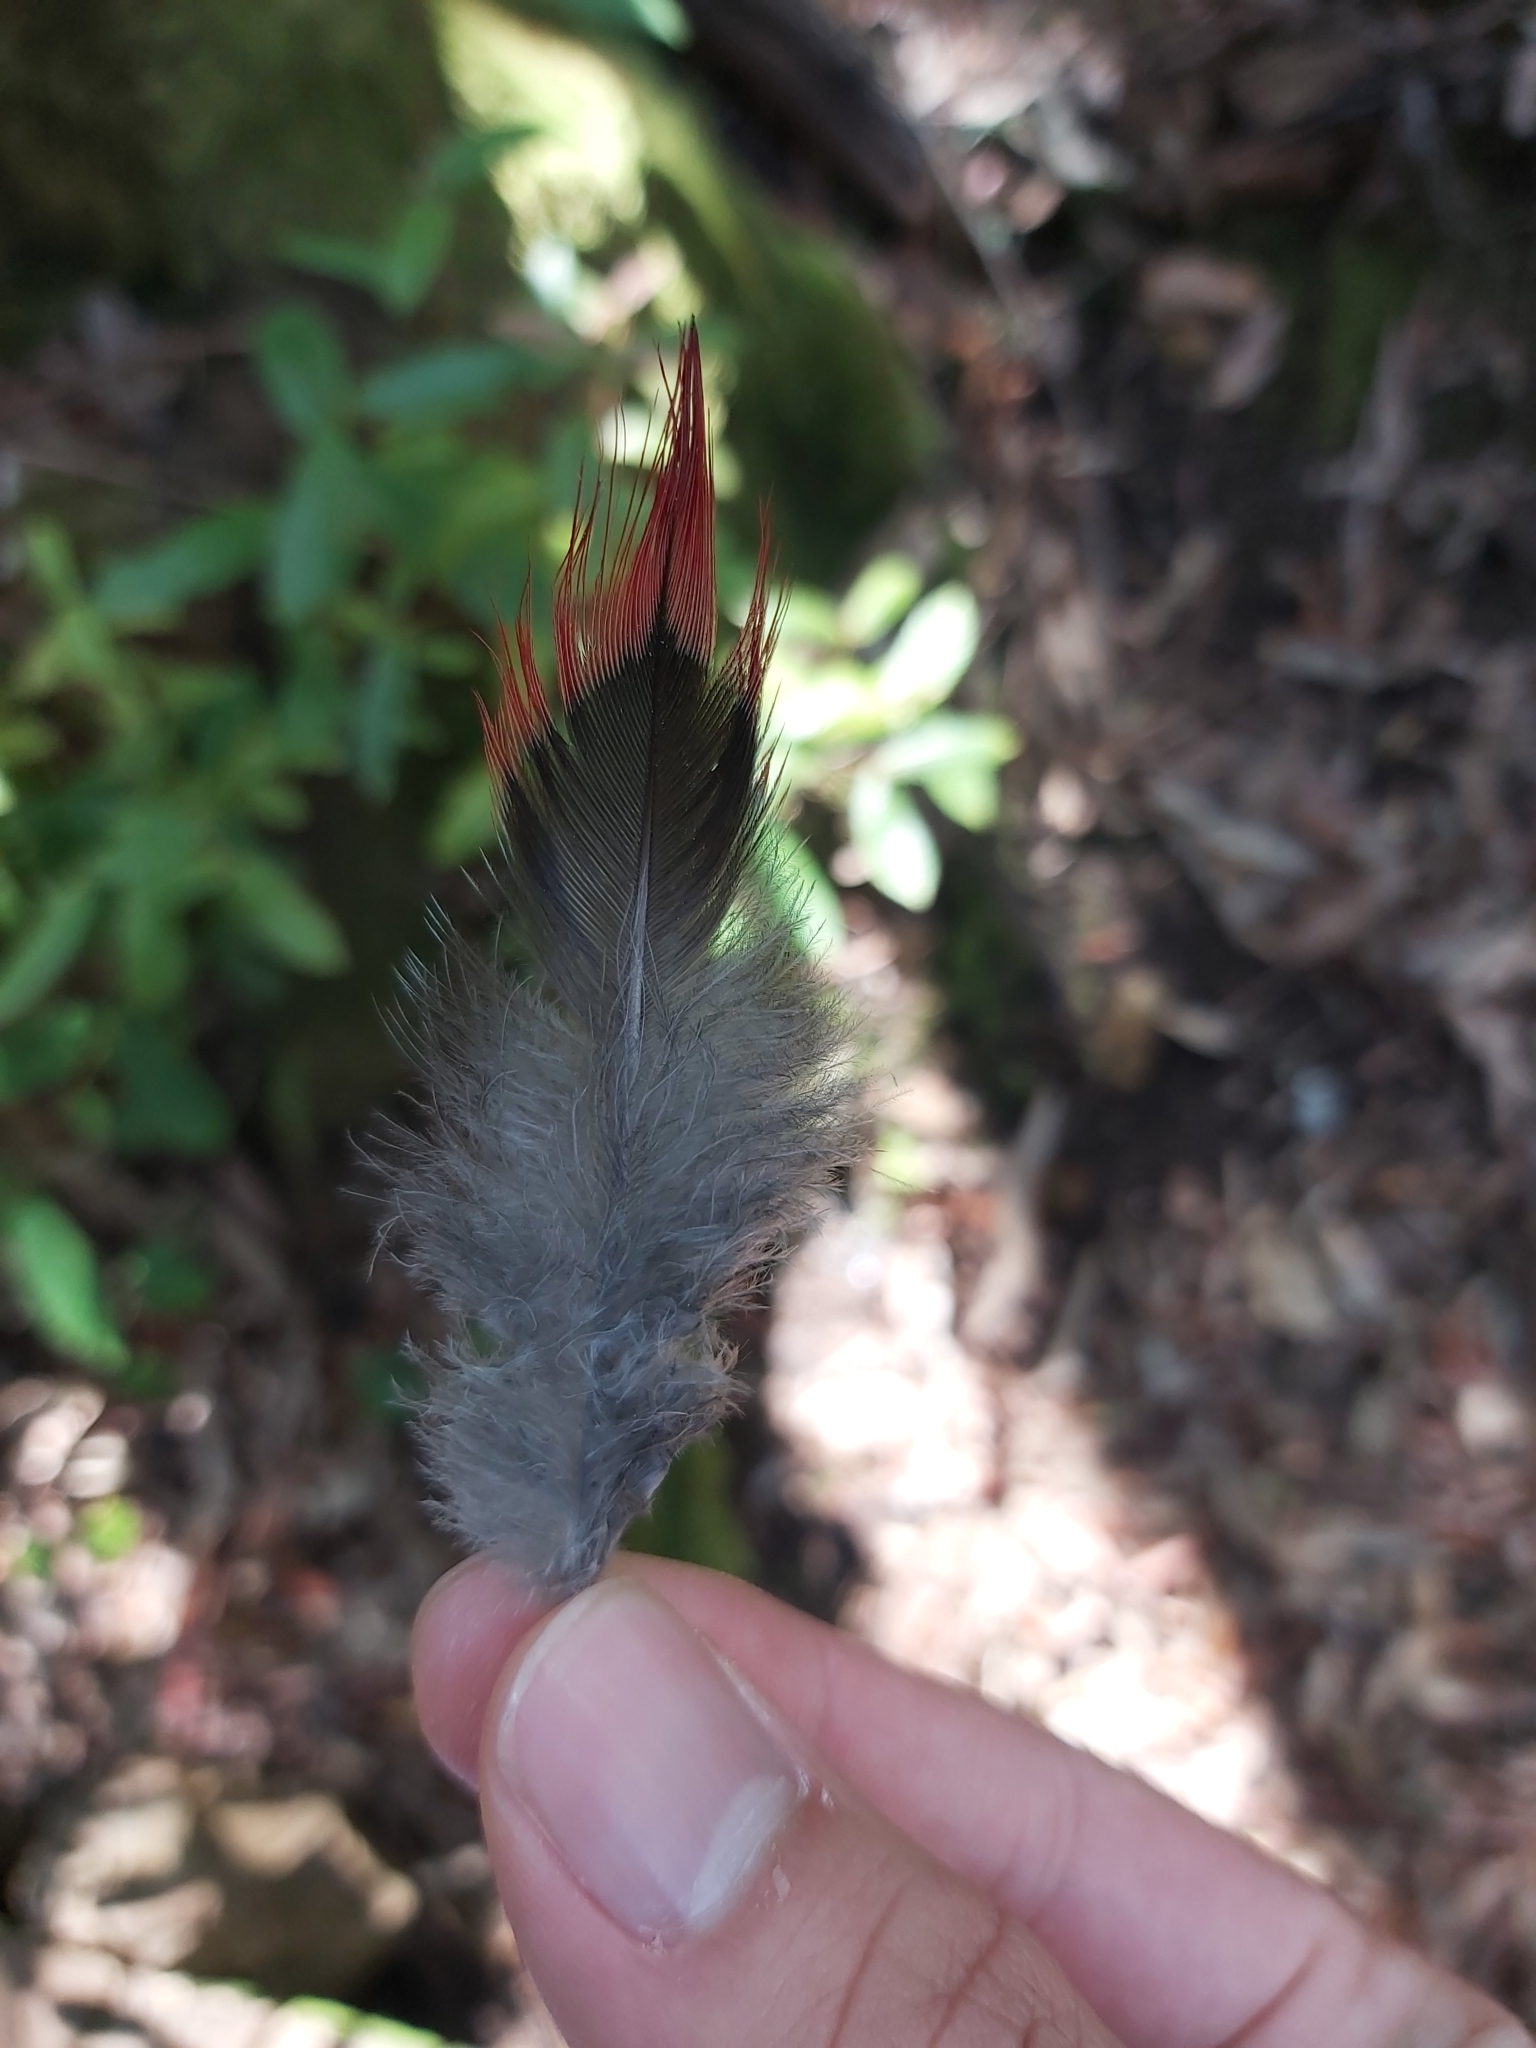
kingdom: Animalia
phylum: Chordata
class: Aves
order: Psittaciformes
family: Psittacidae
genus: Alisterus
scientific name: Alisterus scapularis
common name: Australian king parrot
